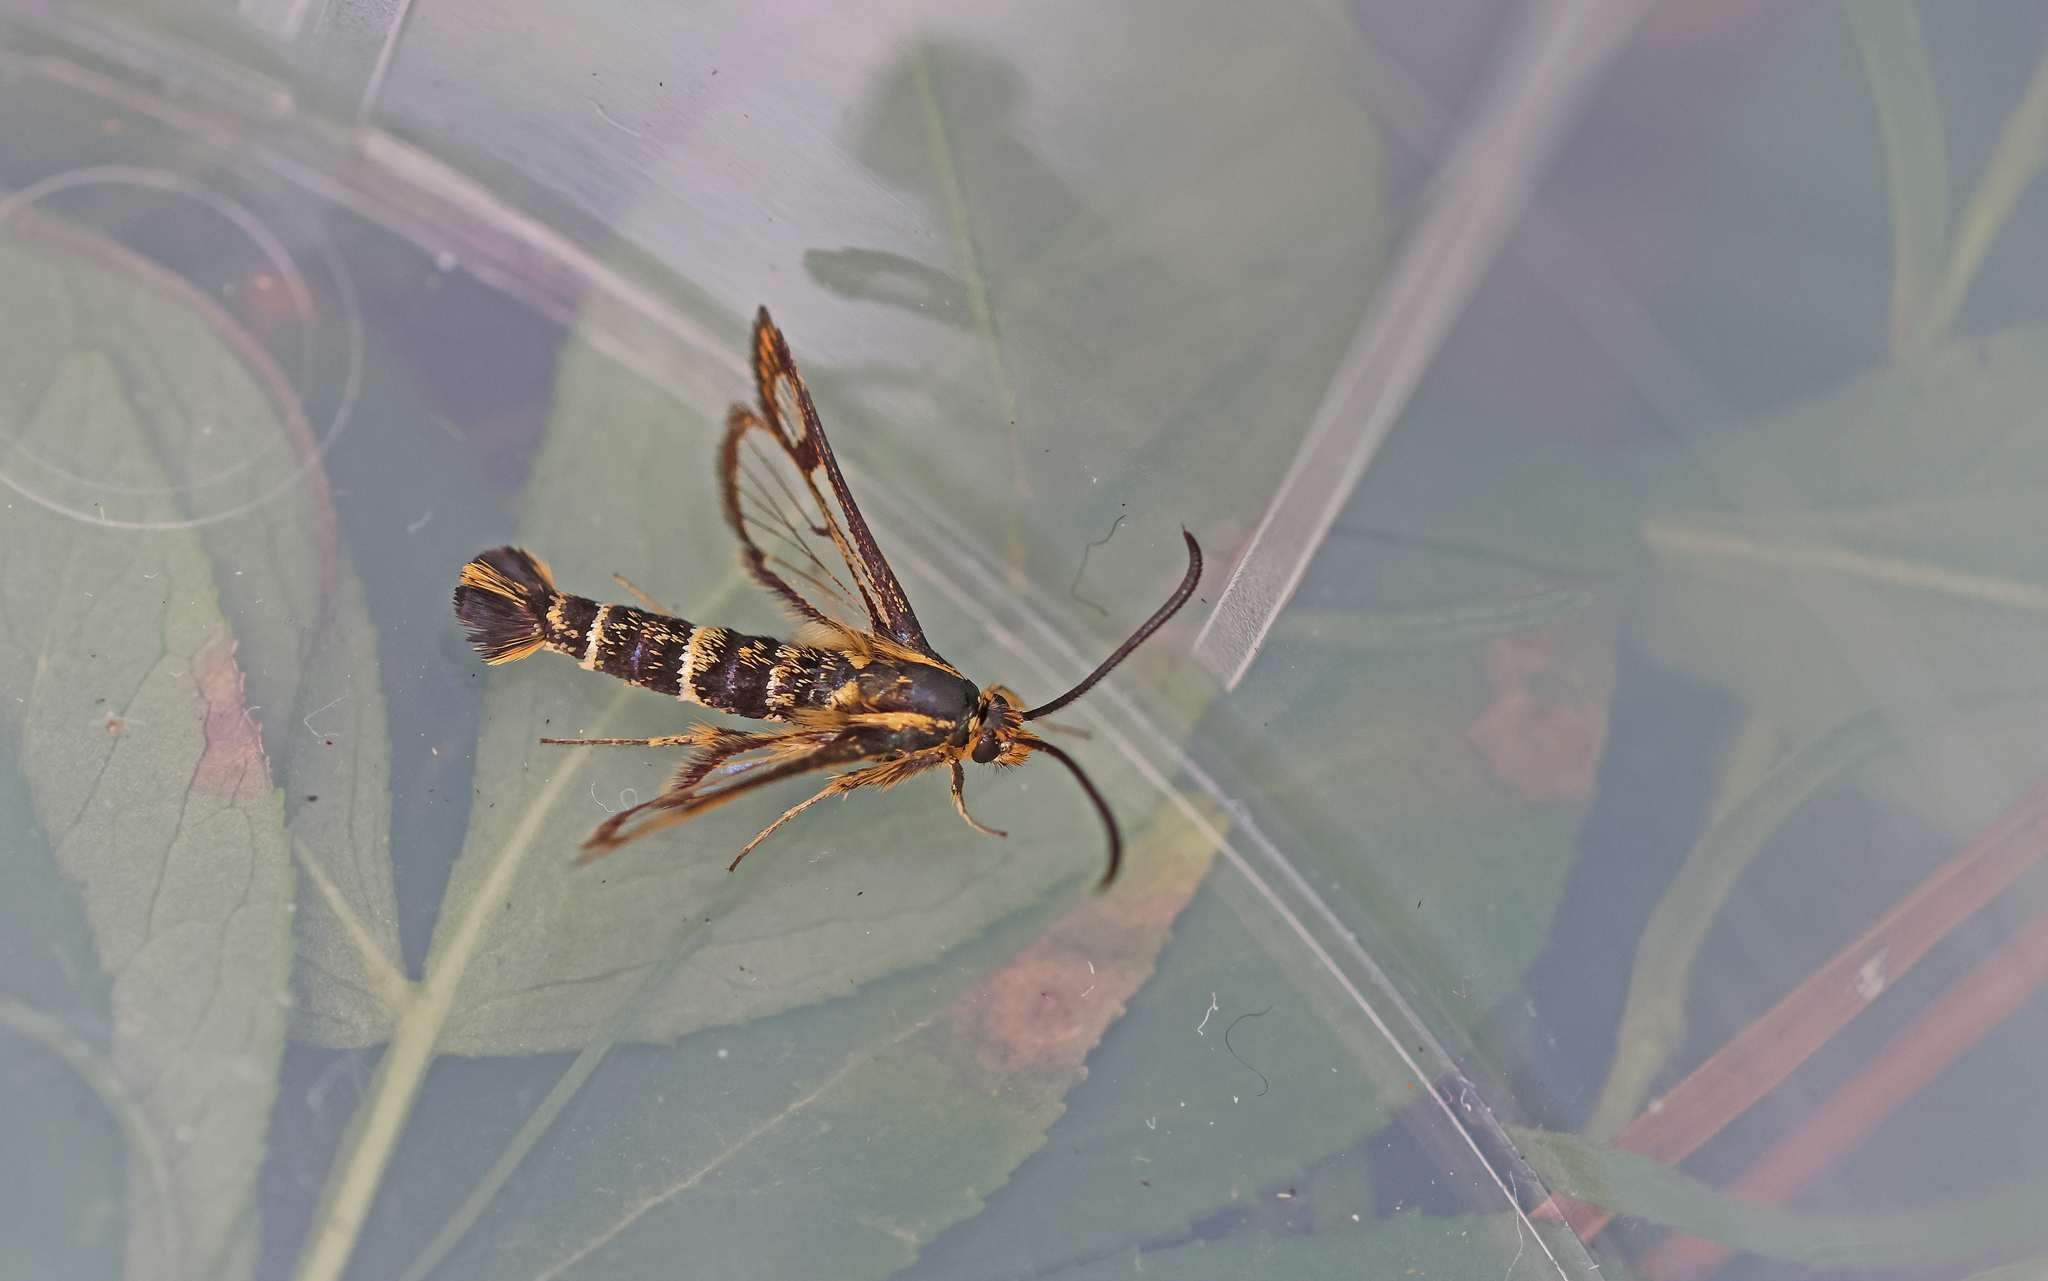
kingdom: Animalia
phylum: Arthropoda
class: Insecta
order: Lepidoptera
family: Sesiidae
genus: Chamaesphecia
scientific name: Chamaesphecia empiformis
